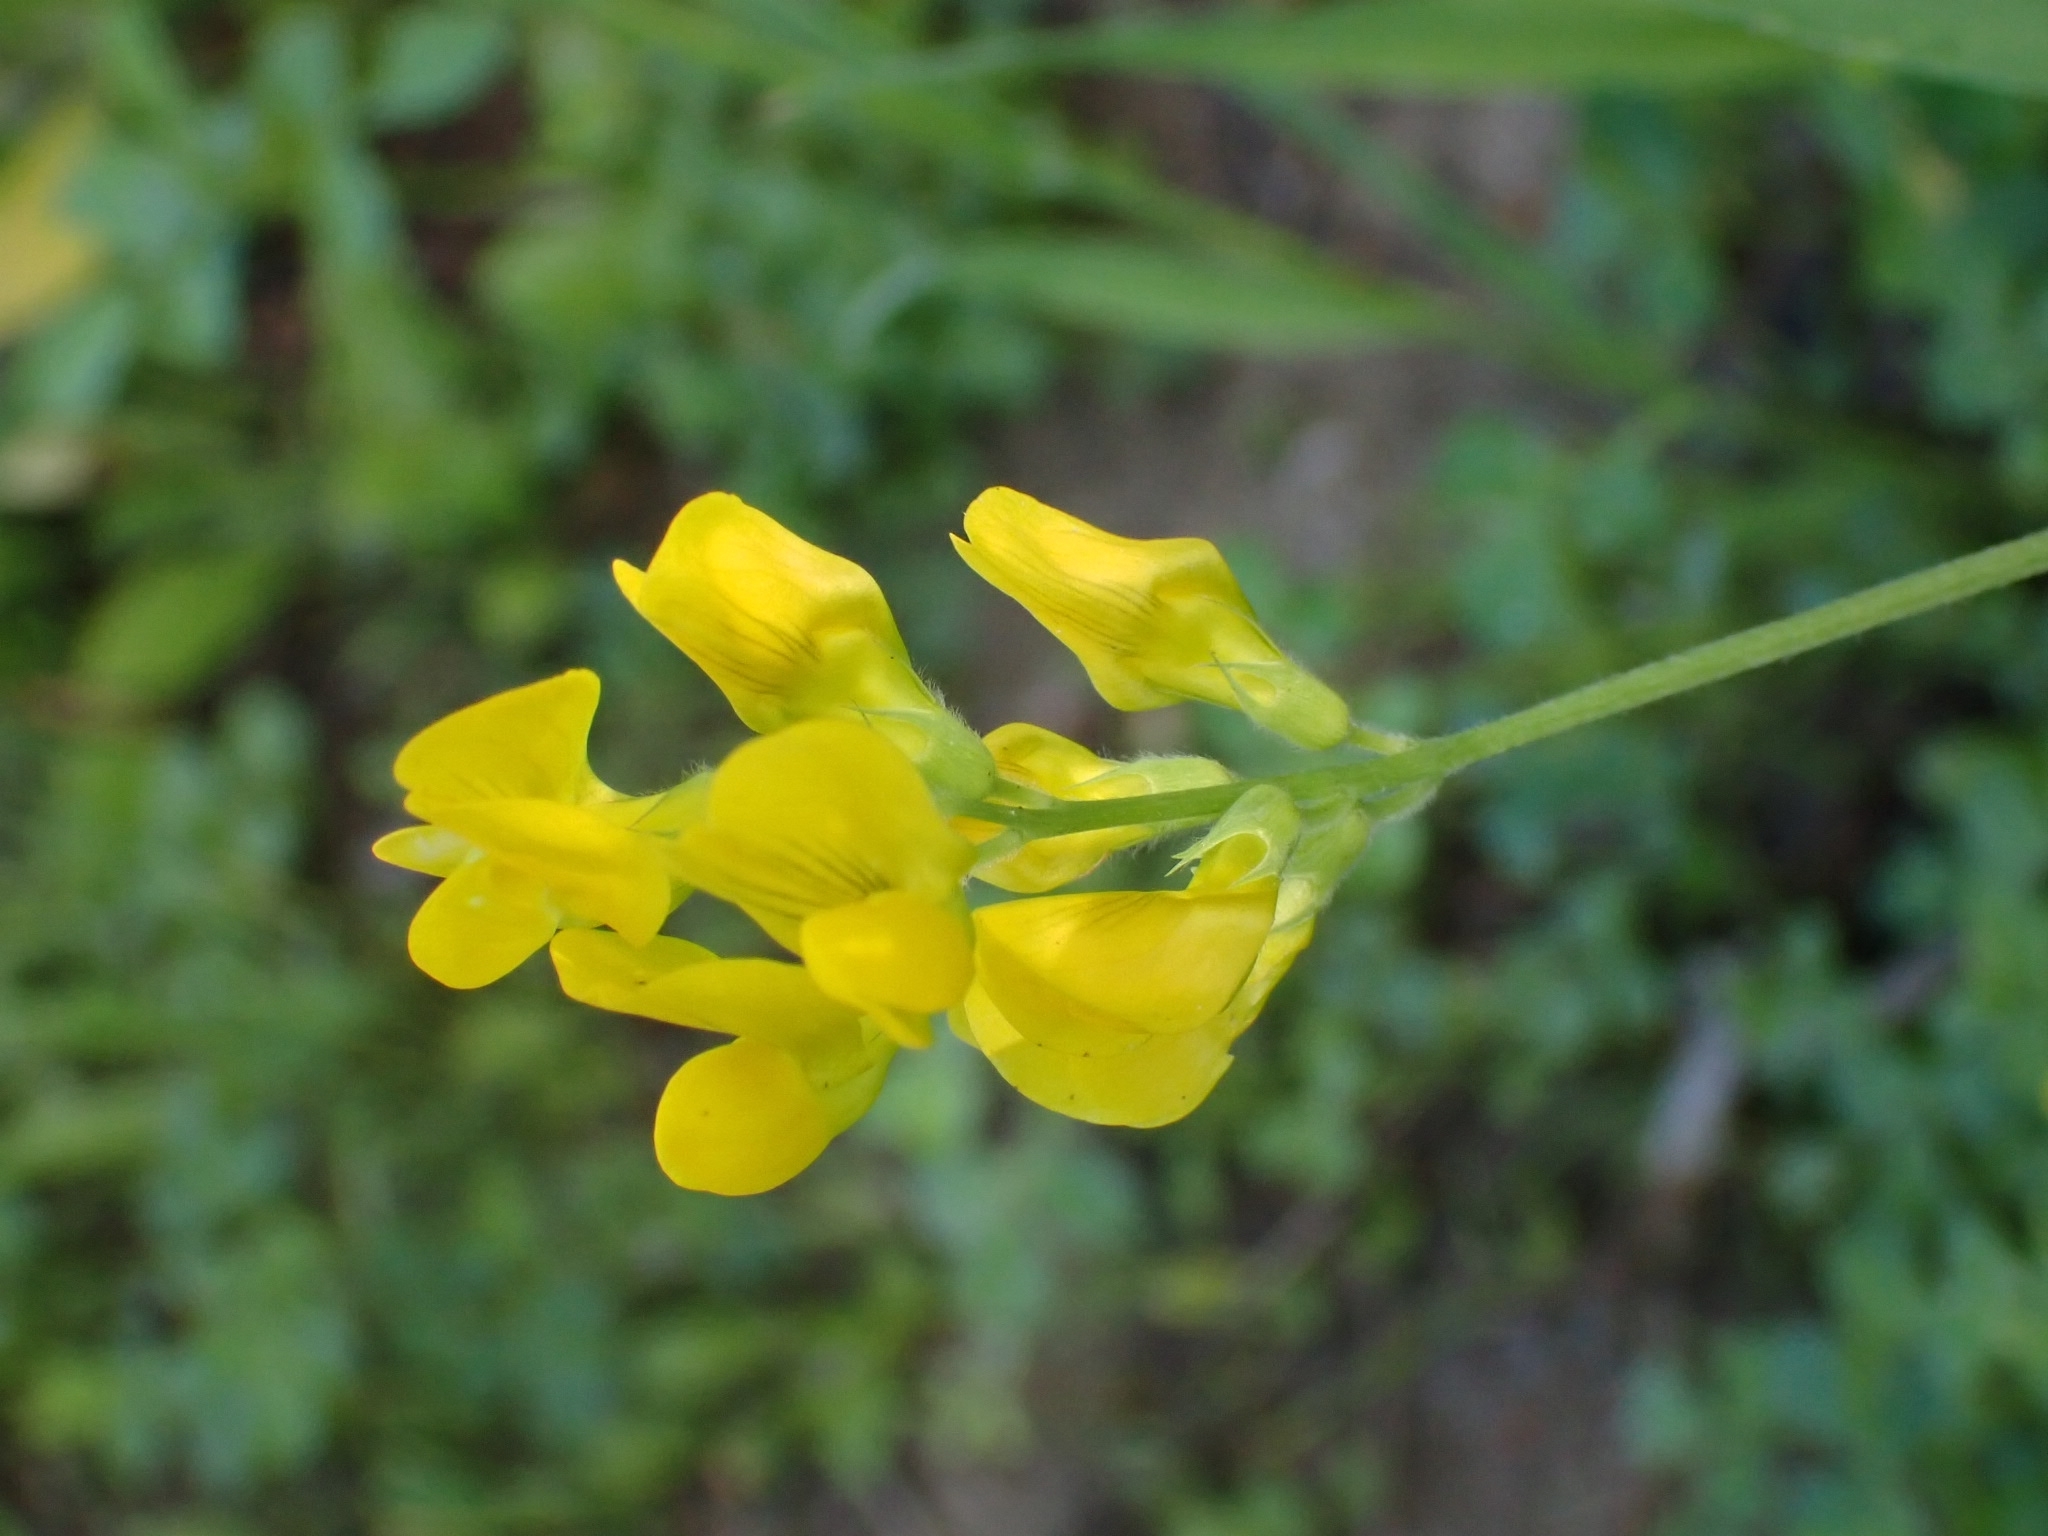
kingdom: Plantae
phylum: Tracheophyta
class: Magnoliopsida
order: Fabales
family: Fabaceae
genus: Lathyrus
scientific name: Lathyrus pratensis
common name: Meadow vetchling
